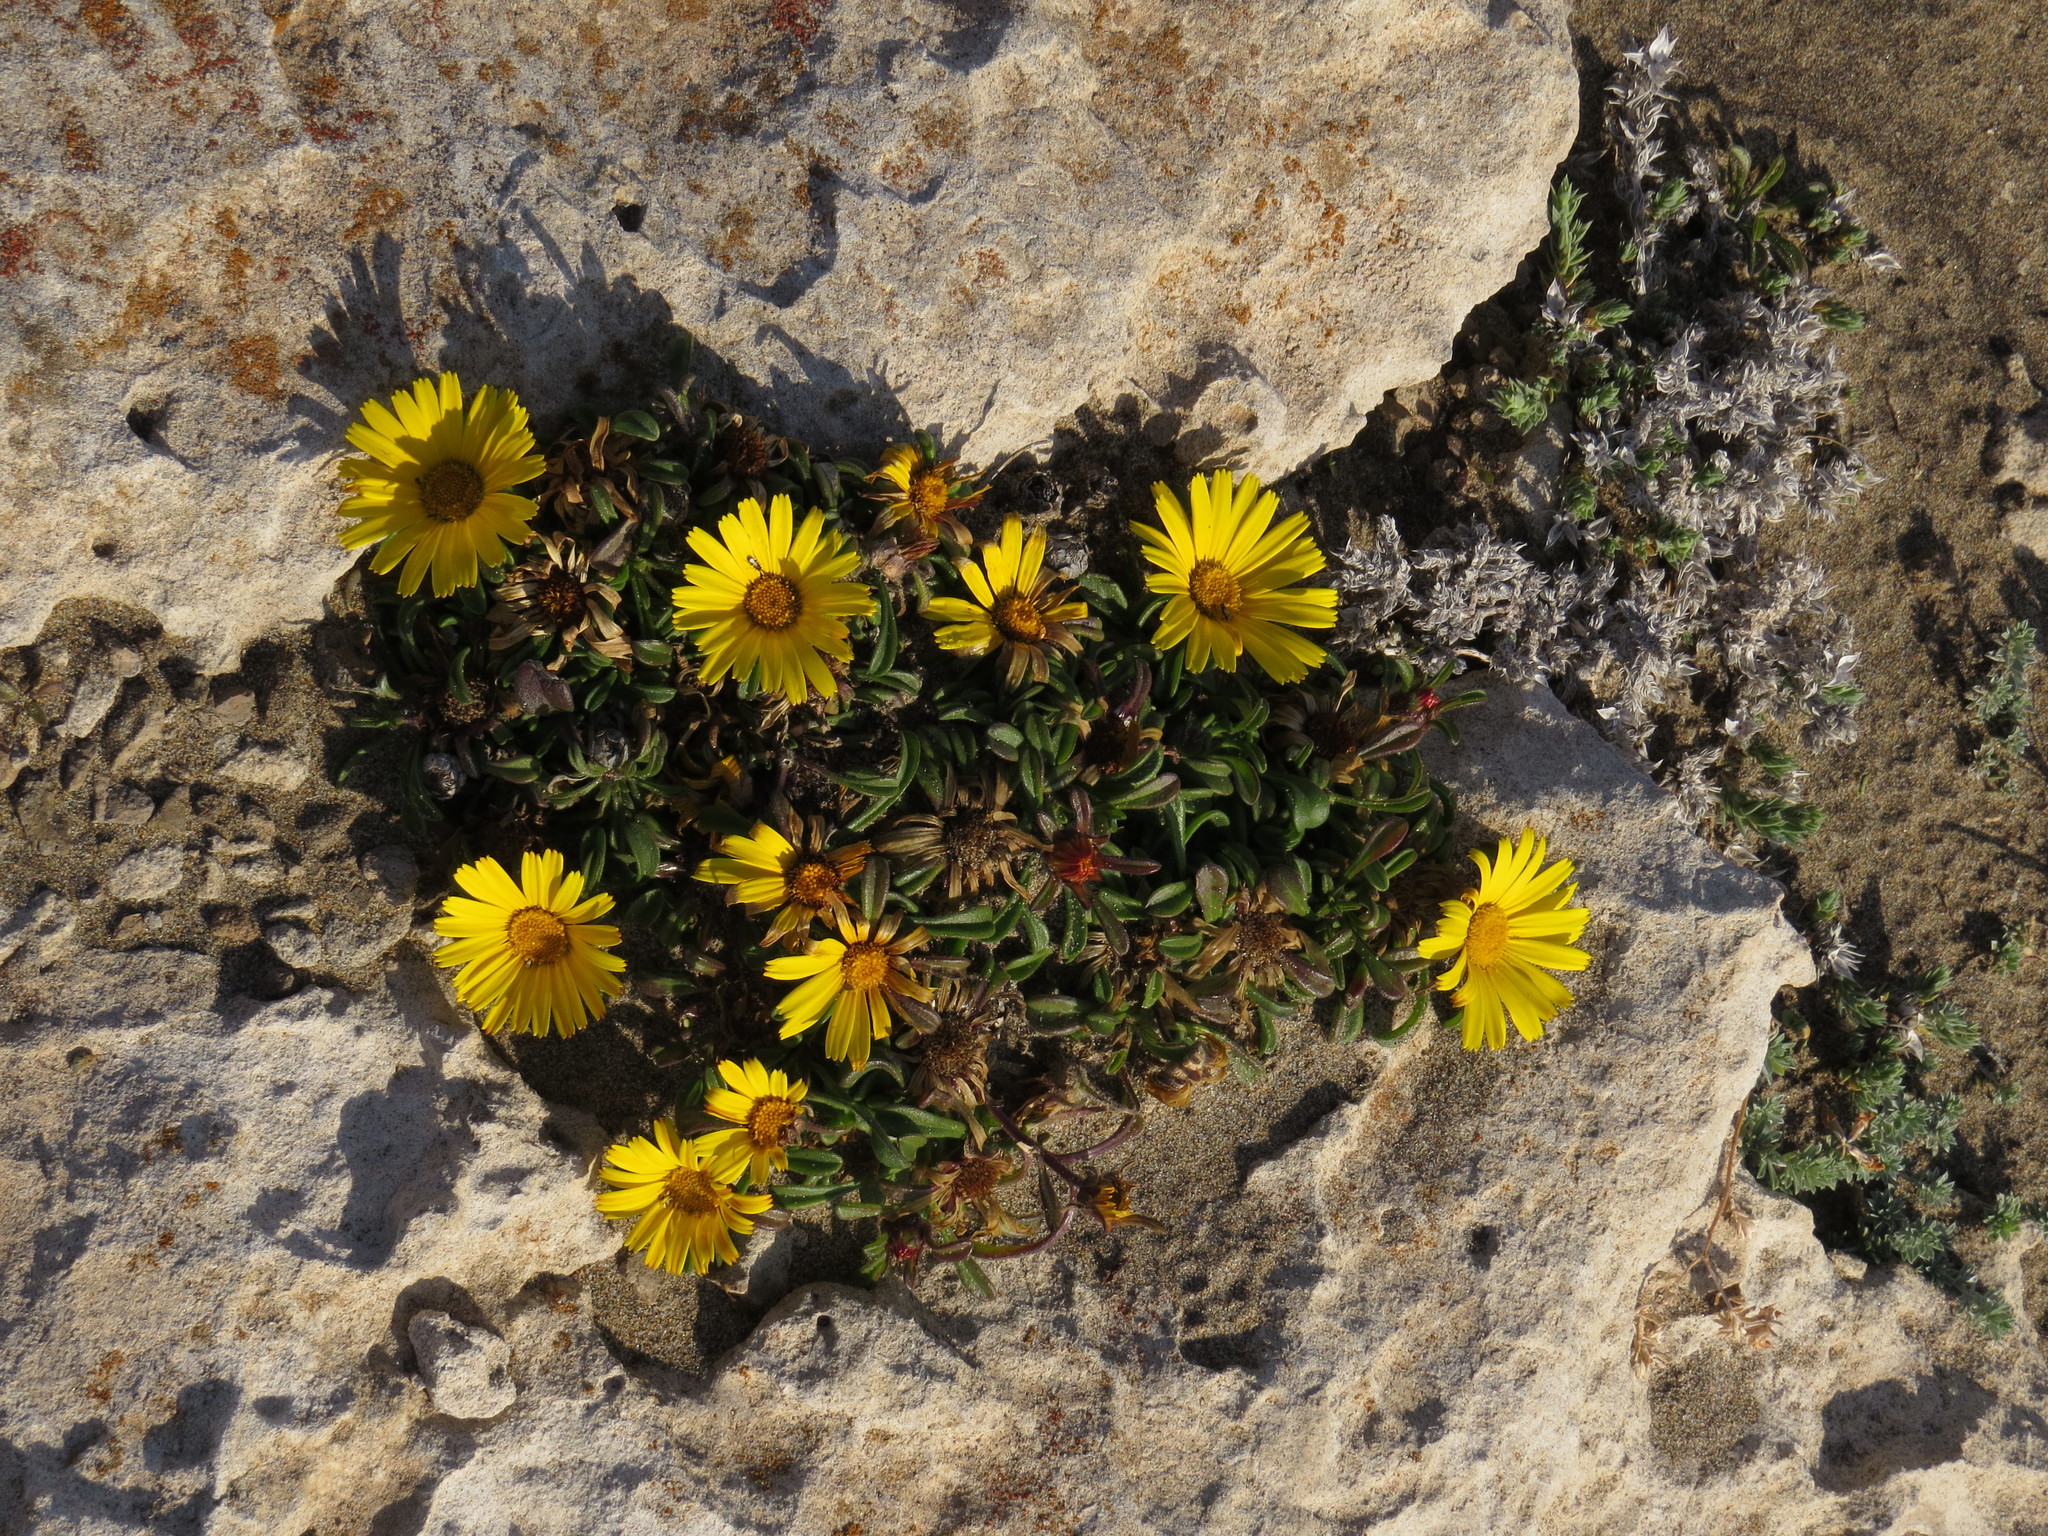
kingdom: Plantae
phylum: Tracheophyta
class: Magnoliopsida
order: Asterales
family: Asteraceae
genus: Pallenis
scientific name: Pallenis maritima
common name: Golden coin daisy
